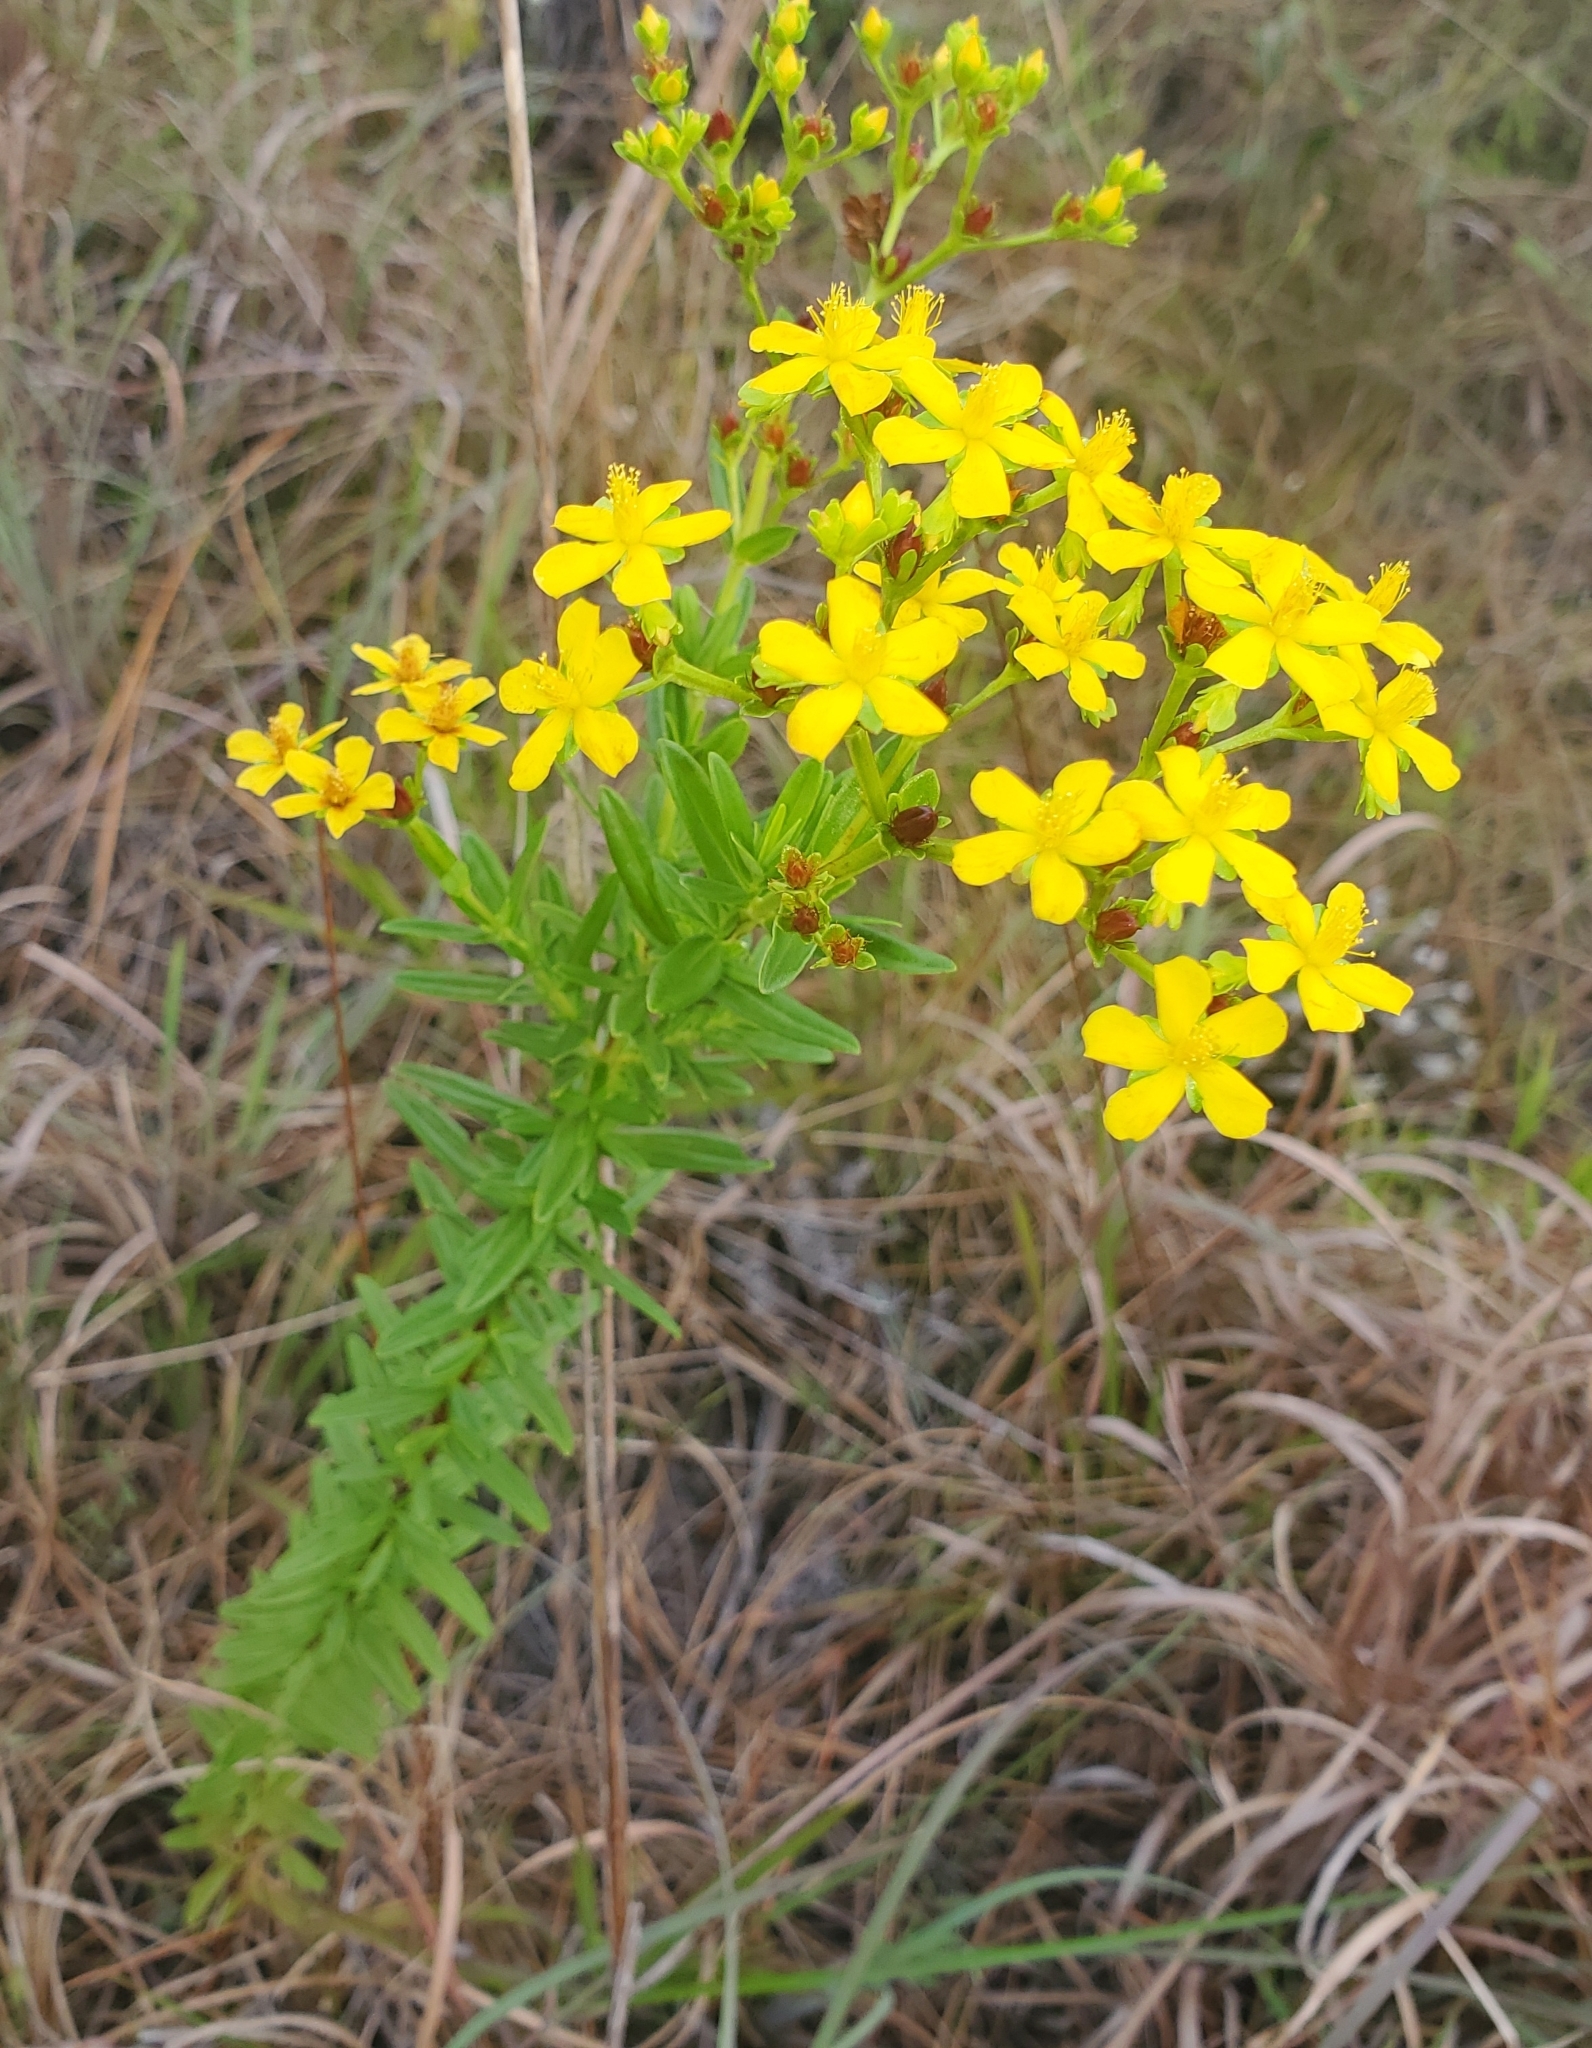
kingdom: Plantae
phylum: Tracheophyta
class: Magnoliopsida
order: Malpighiales
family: Hypericaceae
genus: Hypericum
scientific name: Hypericum cistifolium
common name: Round-pod st. john's-wort
